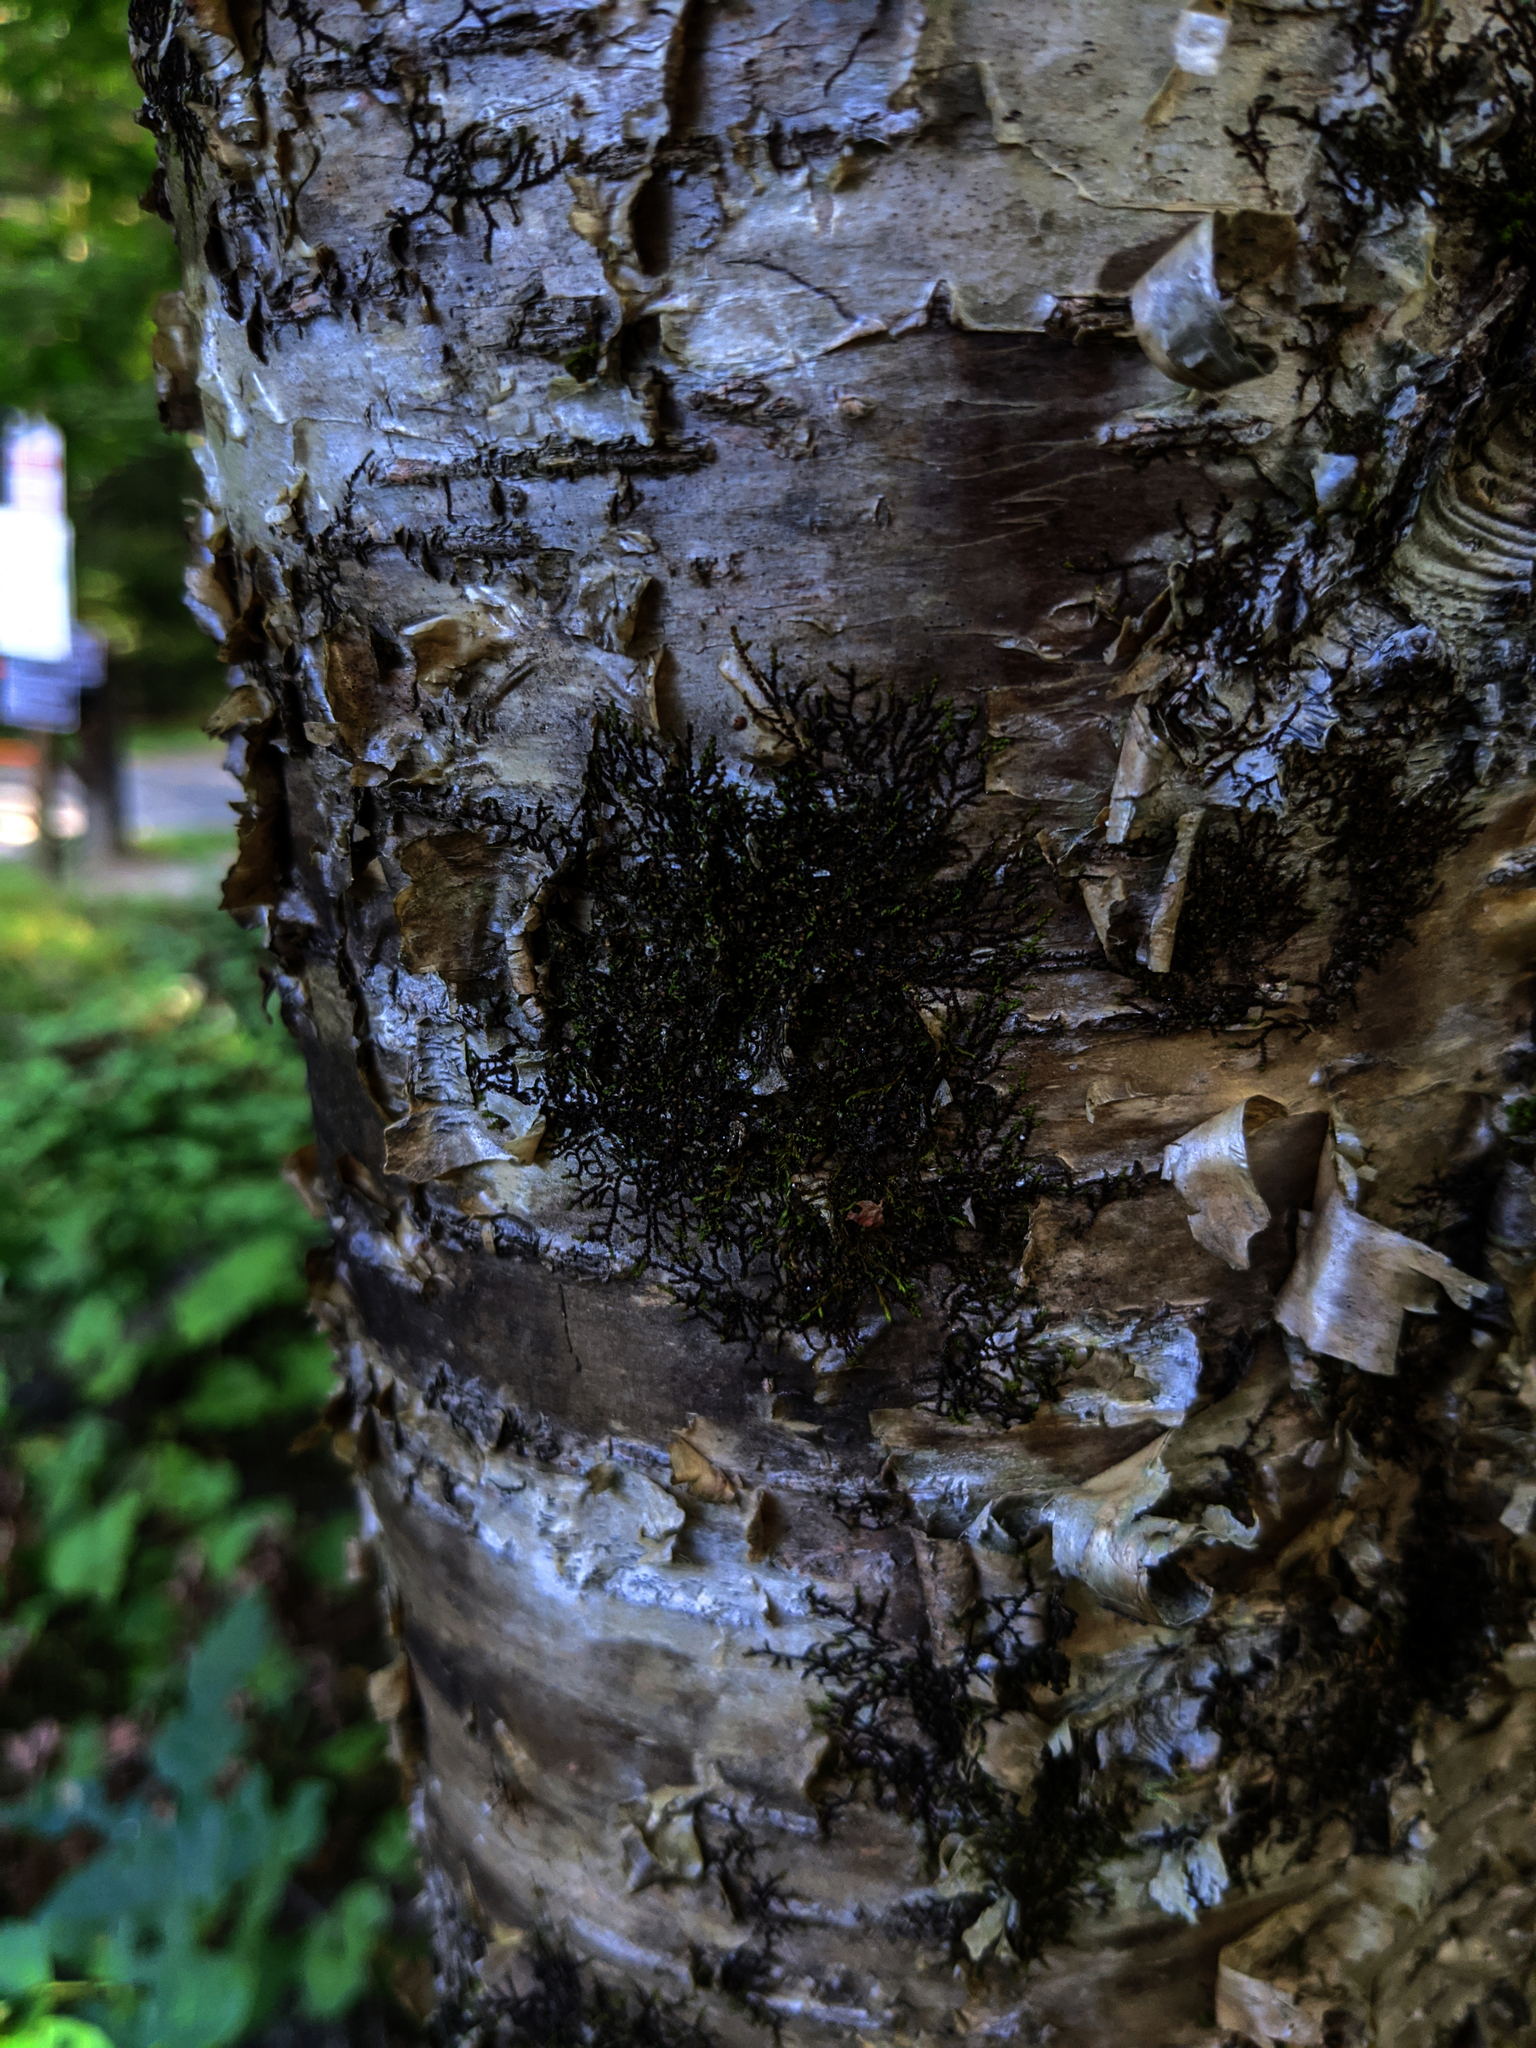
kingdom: Plantae
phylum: Tracheophyta
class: Magnoliopsida
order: Fagales
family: Betulaceae
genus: Betula
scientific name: Betula alleghaniensis
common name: Yellow birch
